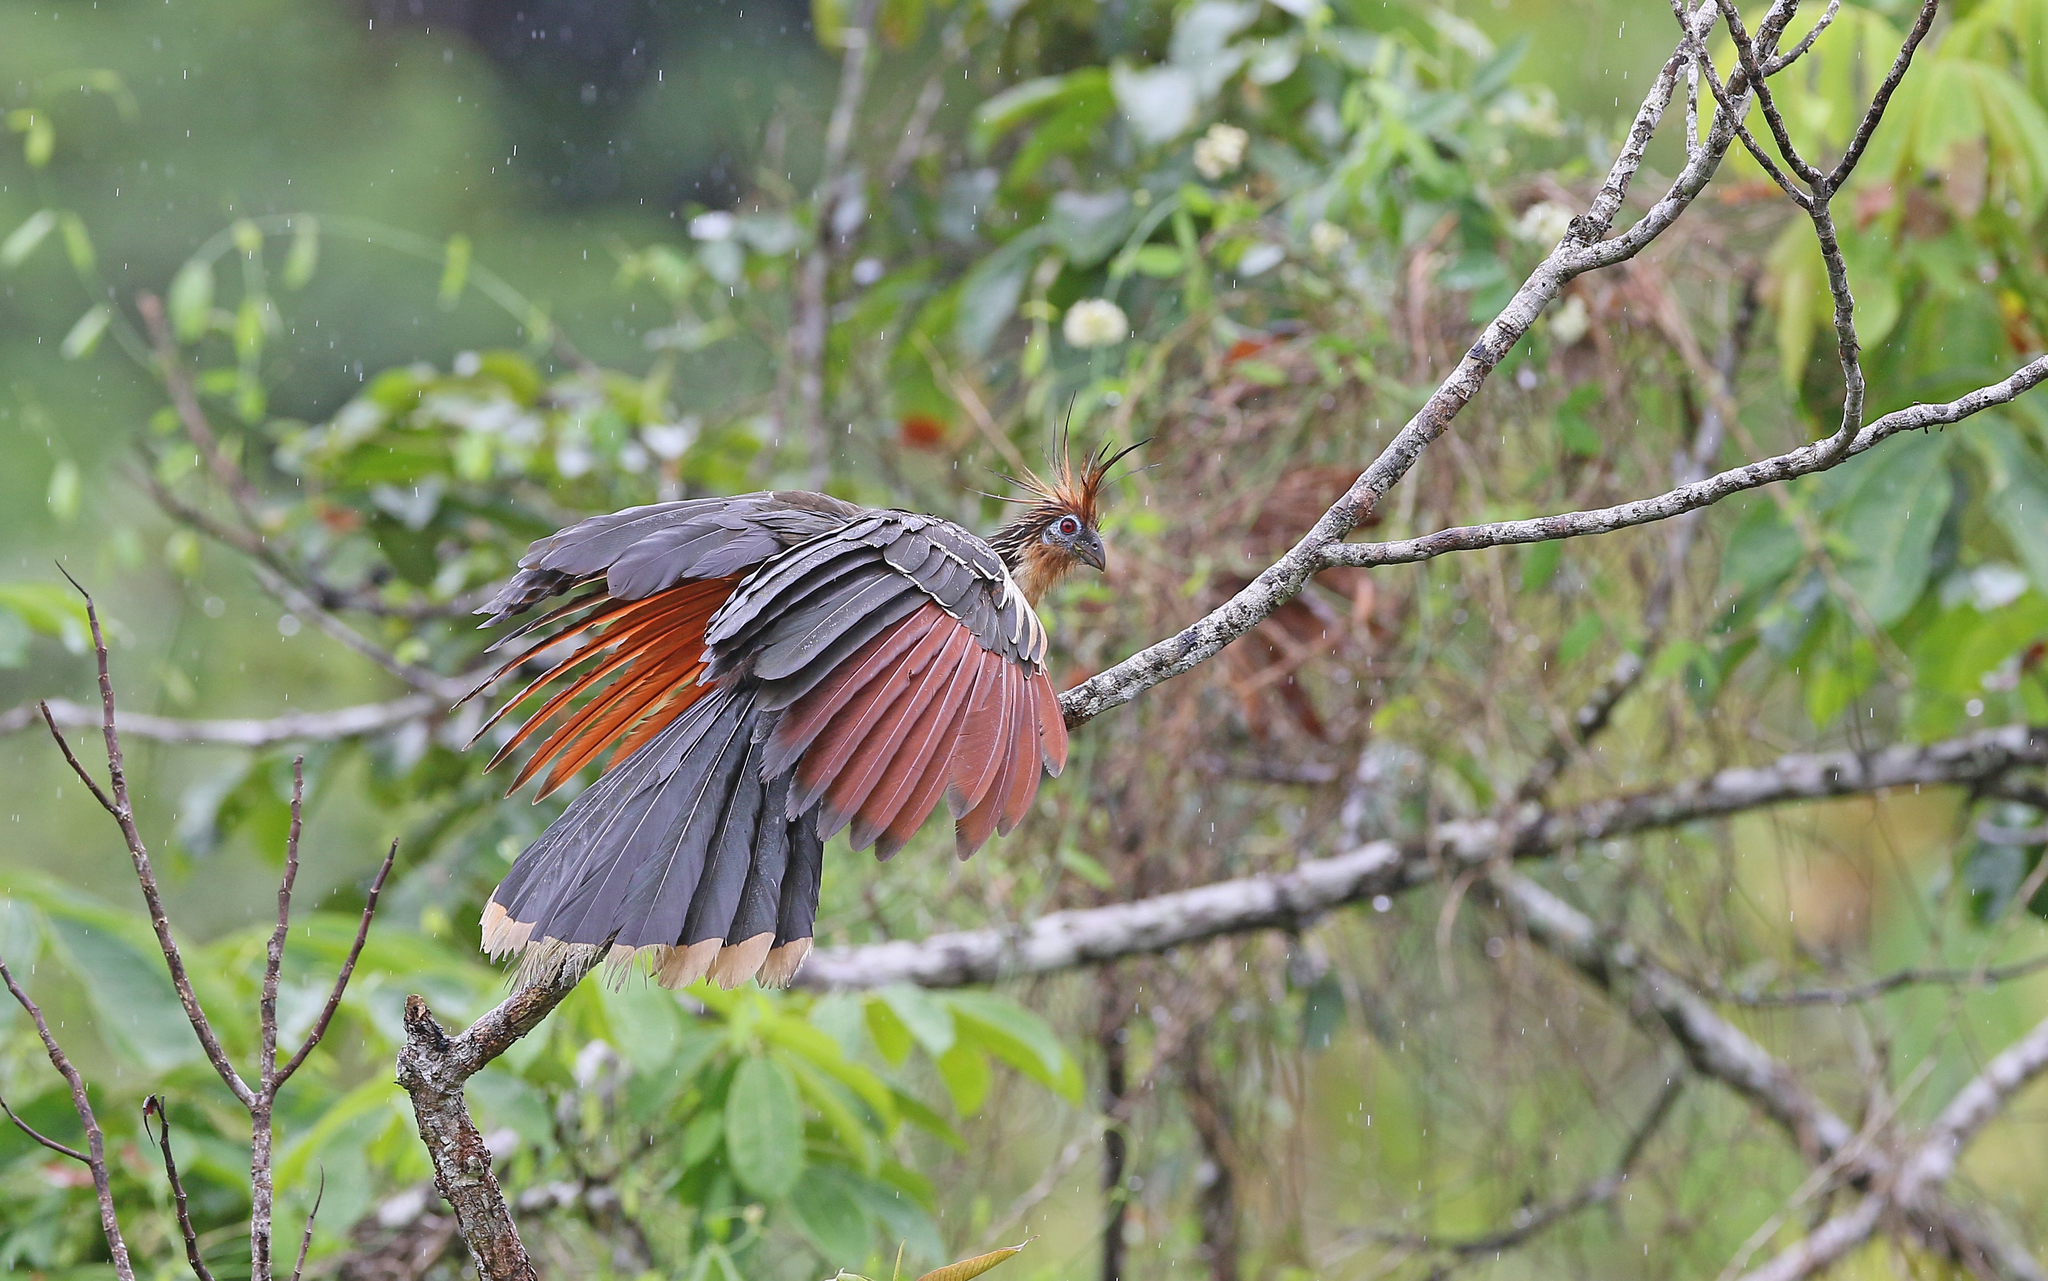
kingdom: Animalia
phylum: Chordata
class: Aves
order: Opisthocomiformes
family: Opisthocomidae
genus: Opisthocomus
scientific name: Opisthocomus hoazin
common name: Hoatzin
